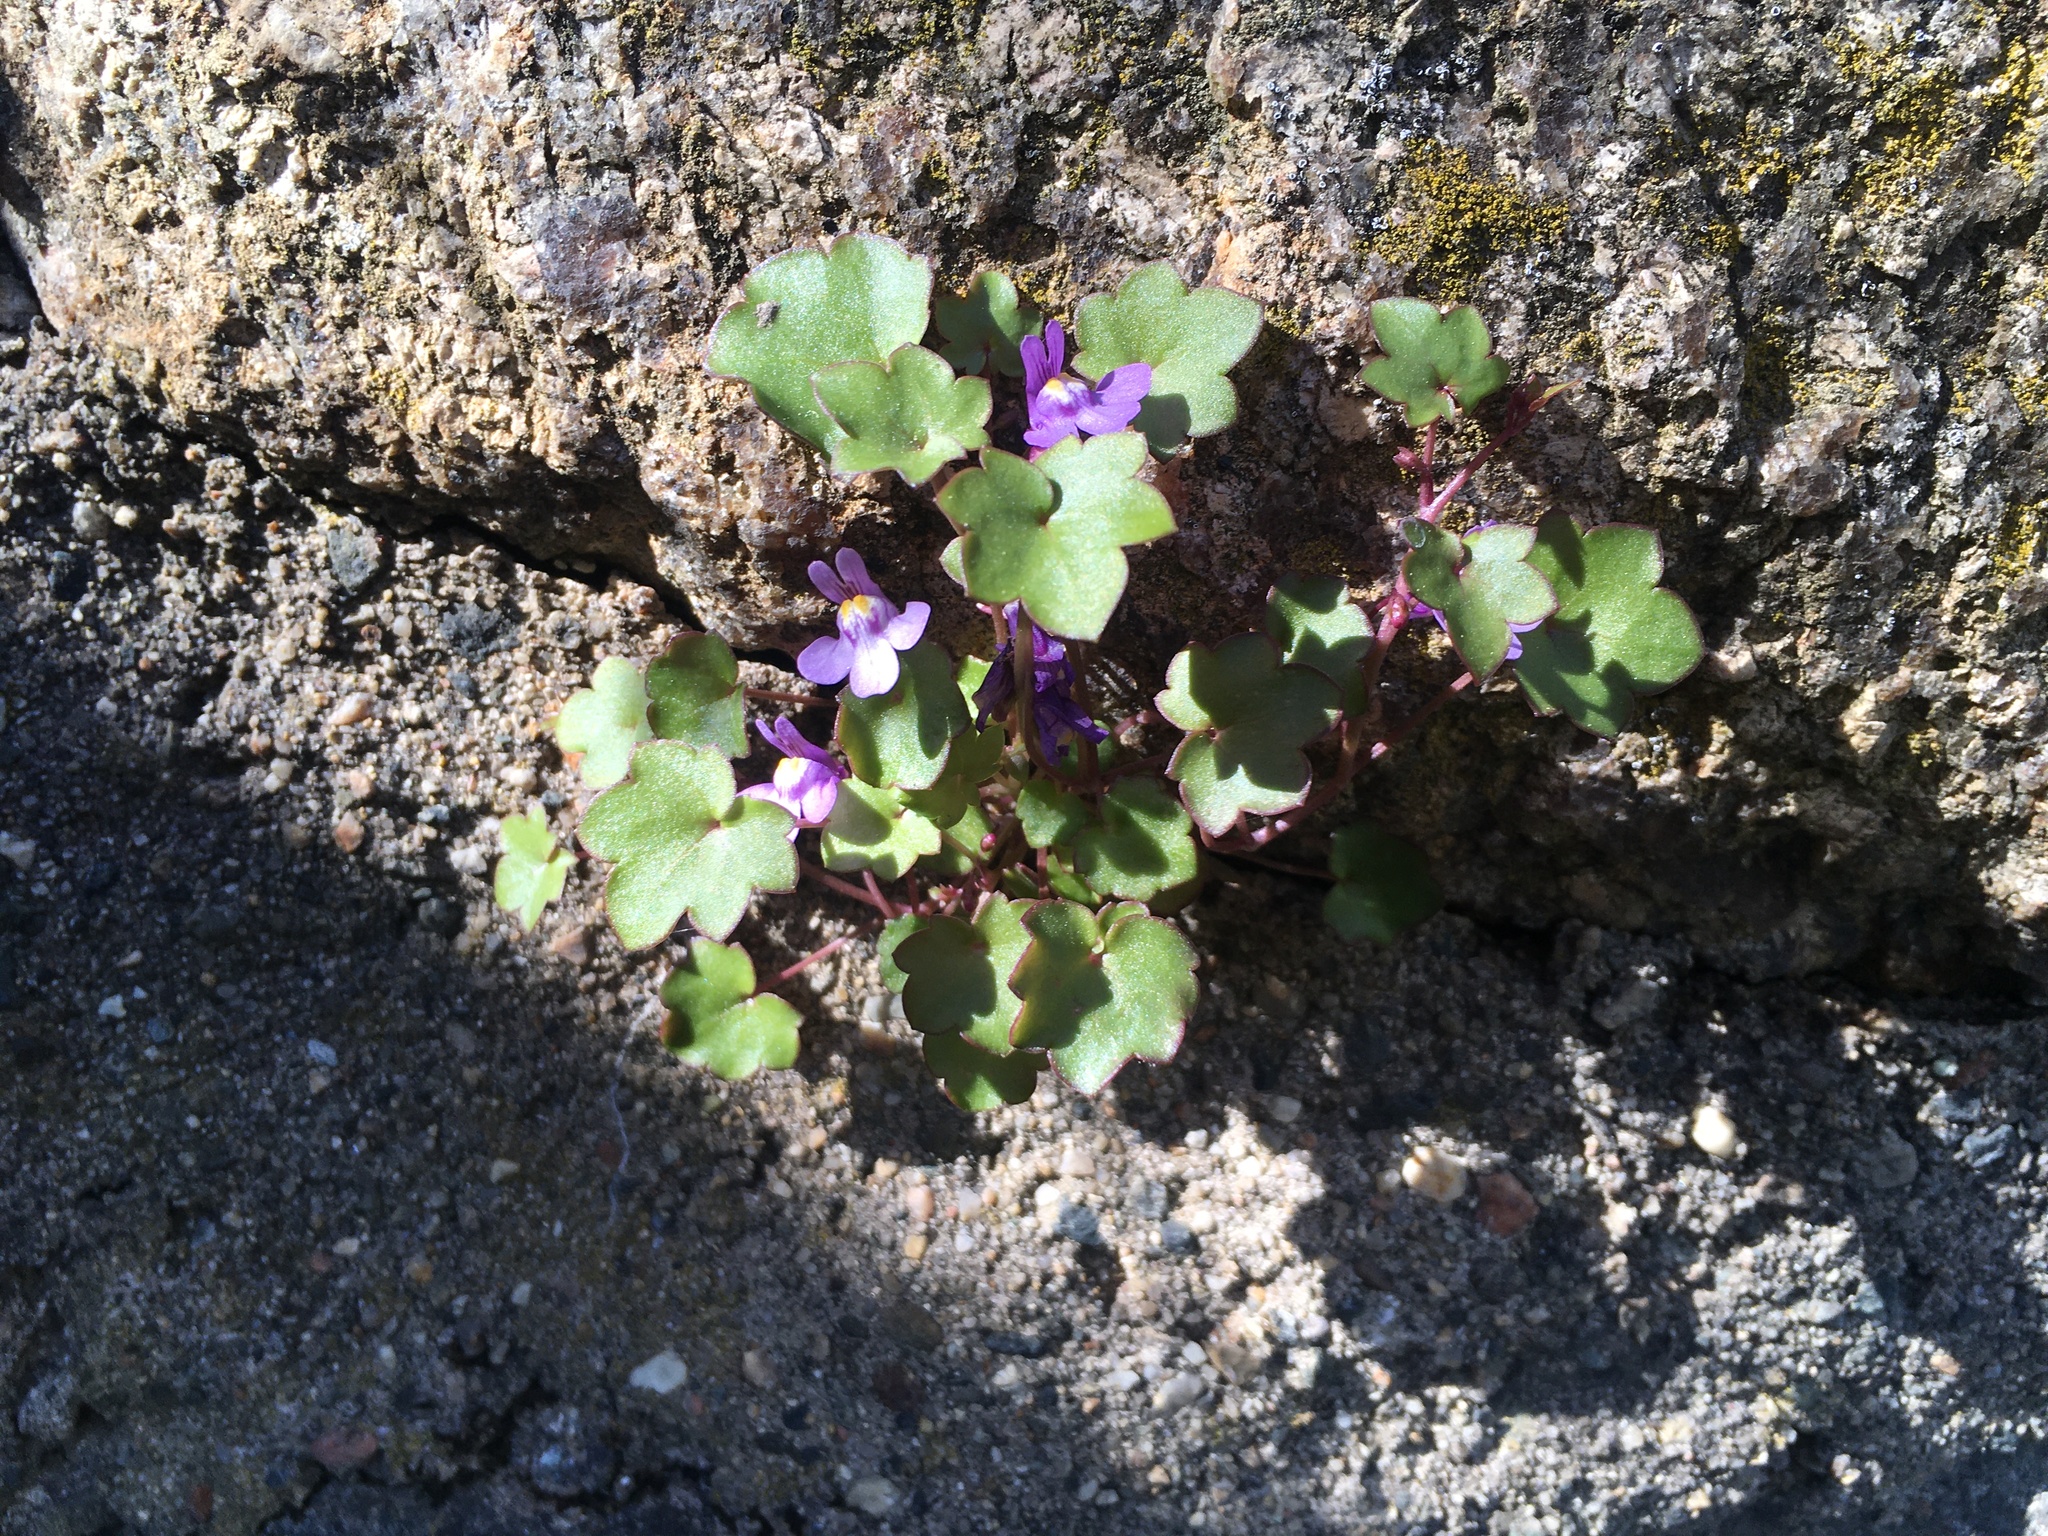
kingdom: Plantae
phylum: Tracheophyta
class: Magnoliopsida
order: Lamiales
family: Plantaginaceae
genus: Cymbalaria
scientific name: Cymbalaria muralis
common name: Ivy-leaved toadflax
